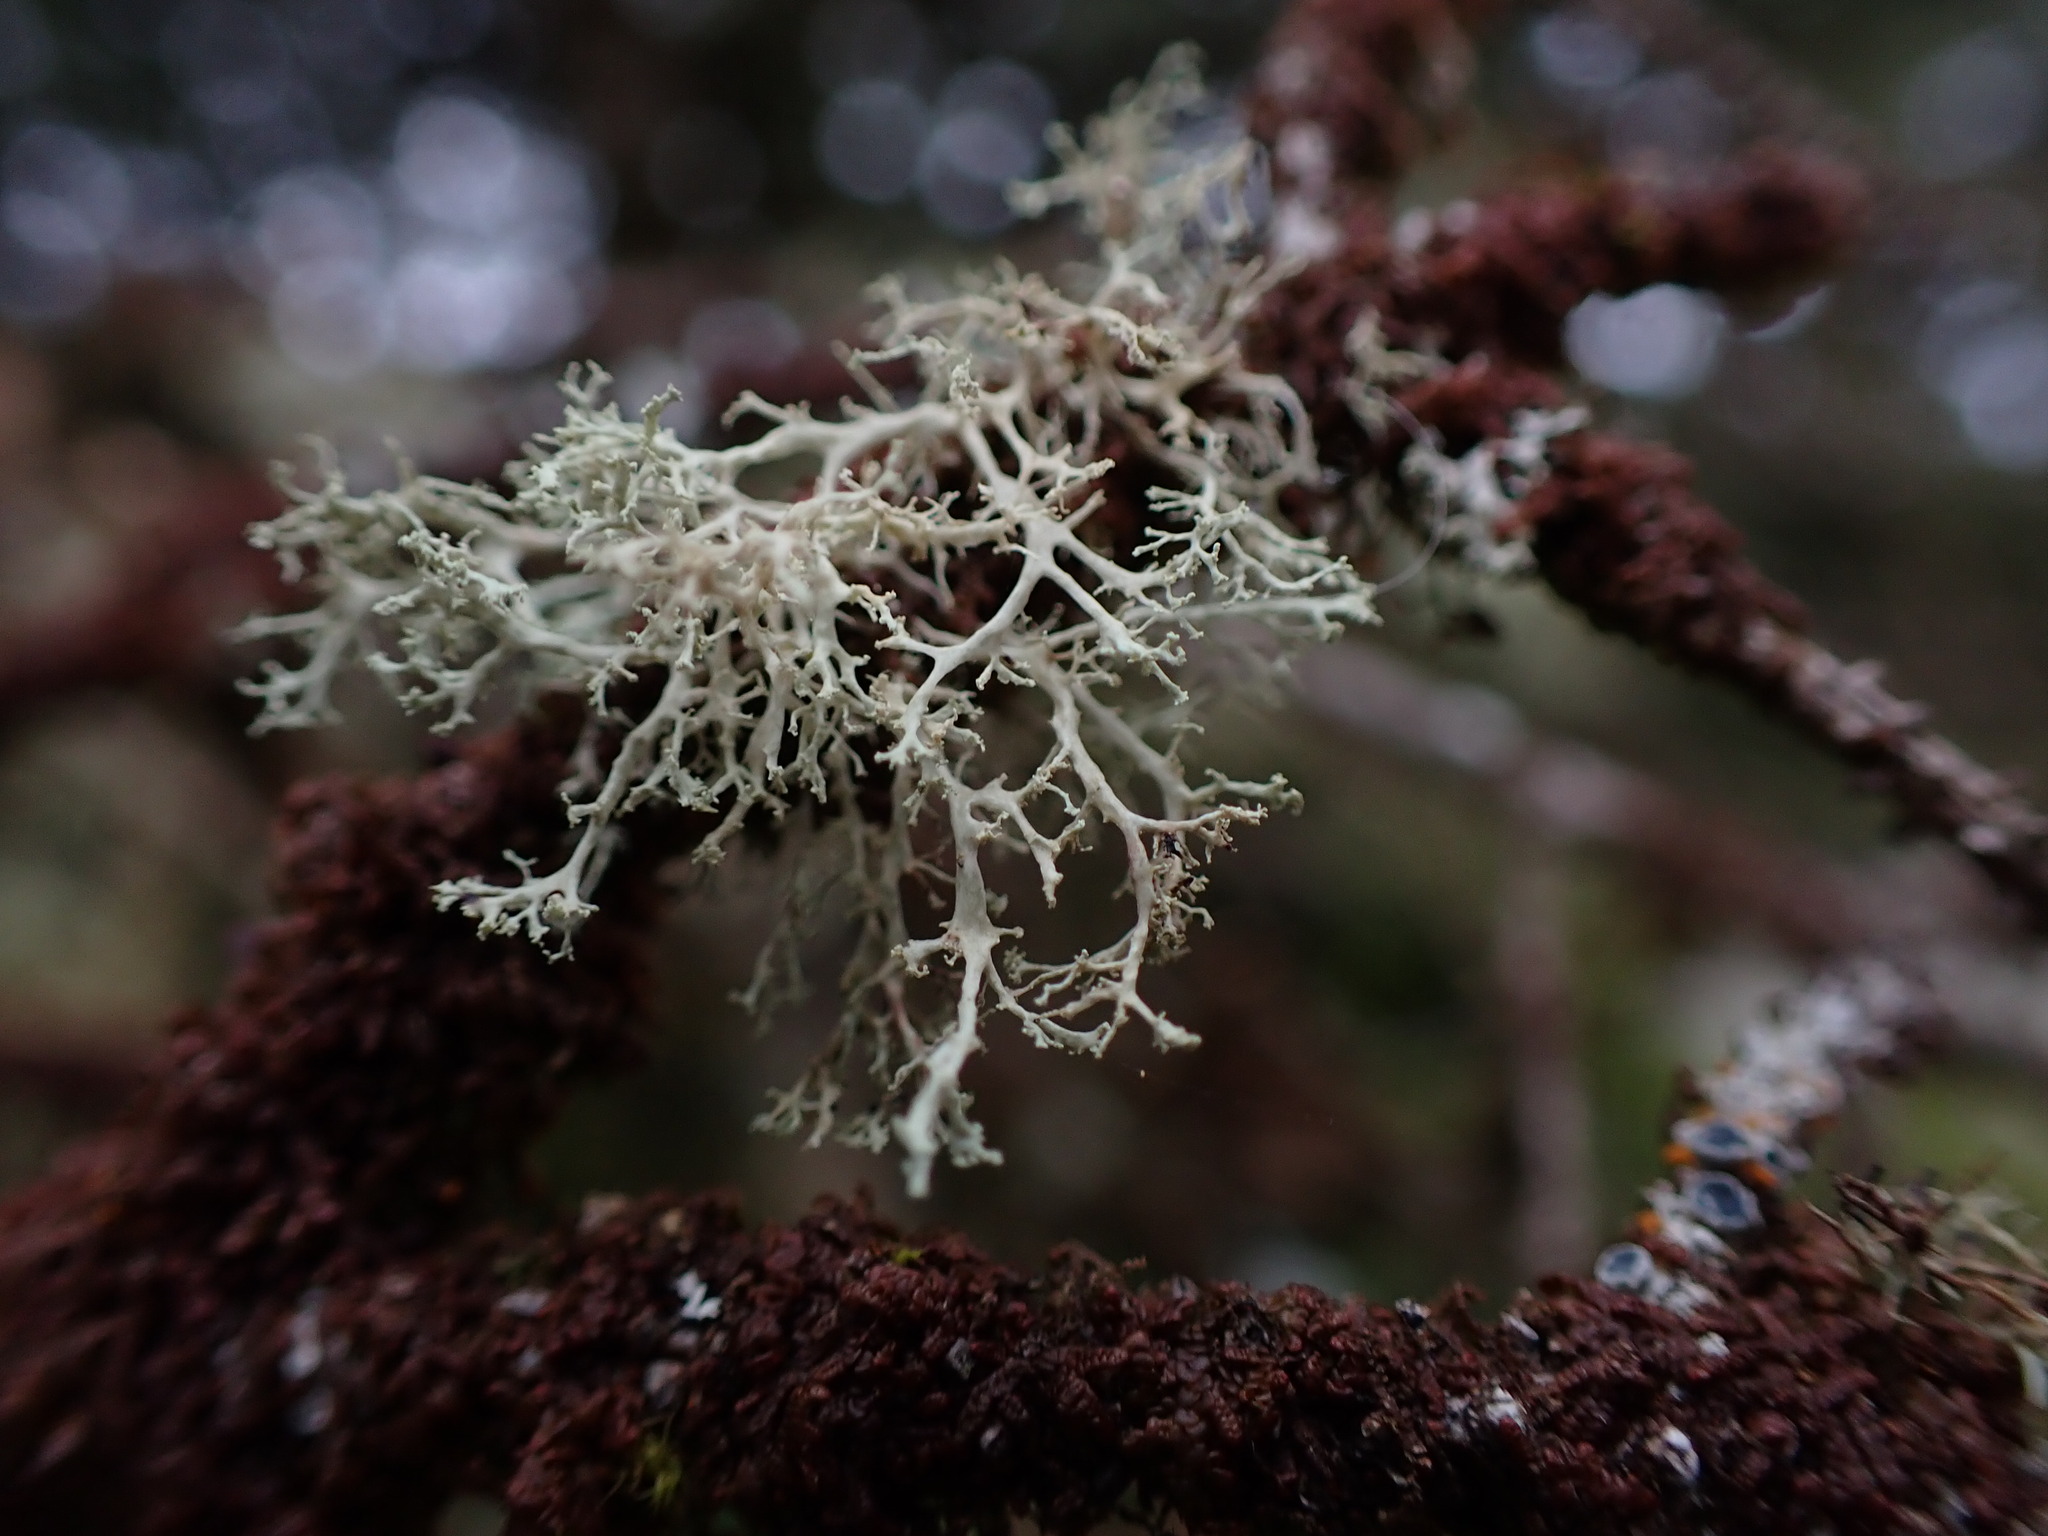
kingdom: Fungi
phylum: Ascomycota
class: Lecanoromycetes
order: Lecanorales
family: Ramalinaceae
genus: Ramalina
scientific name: Ramalina roesleri
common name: Frayed ribbon lichen
